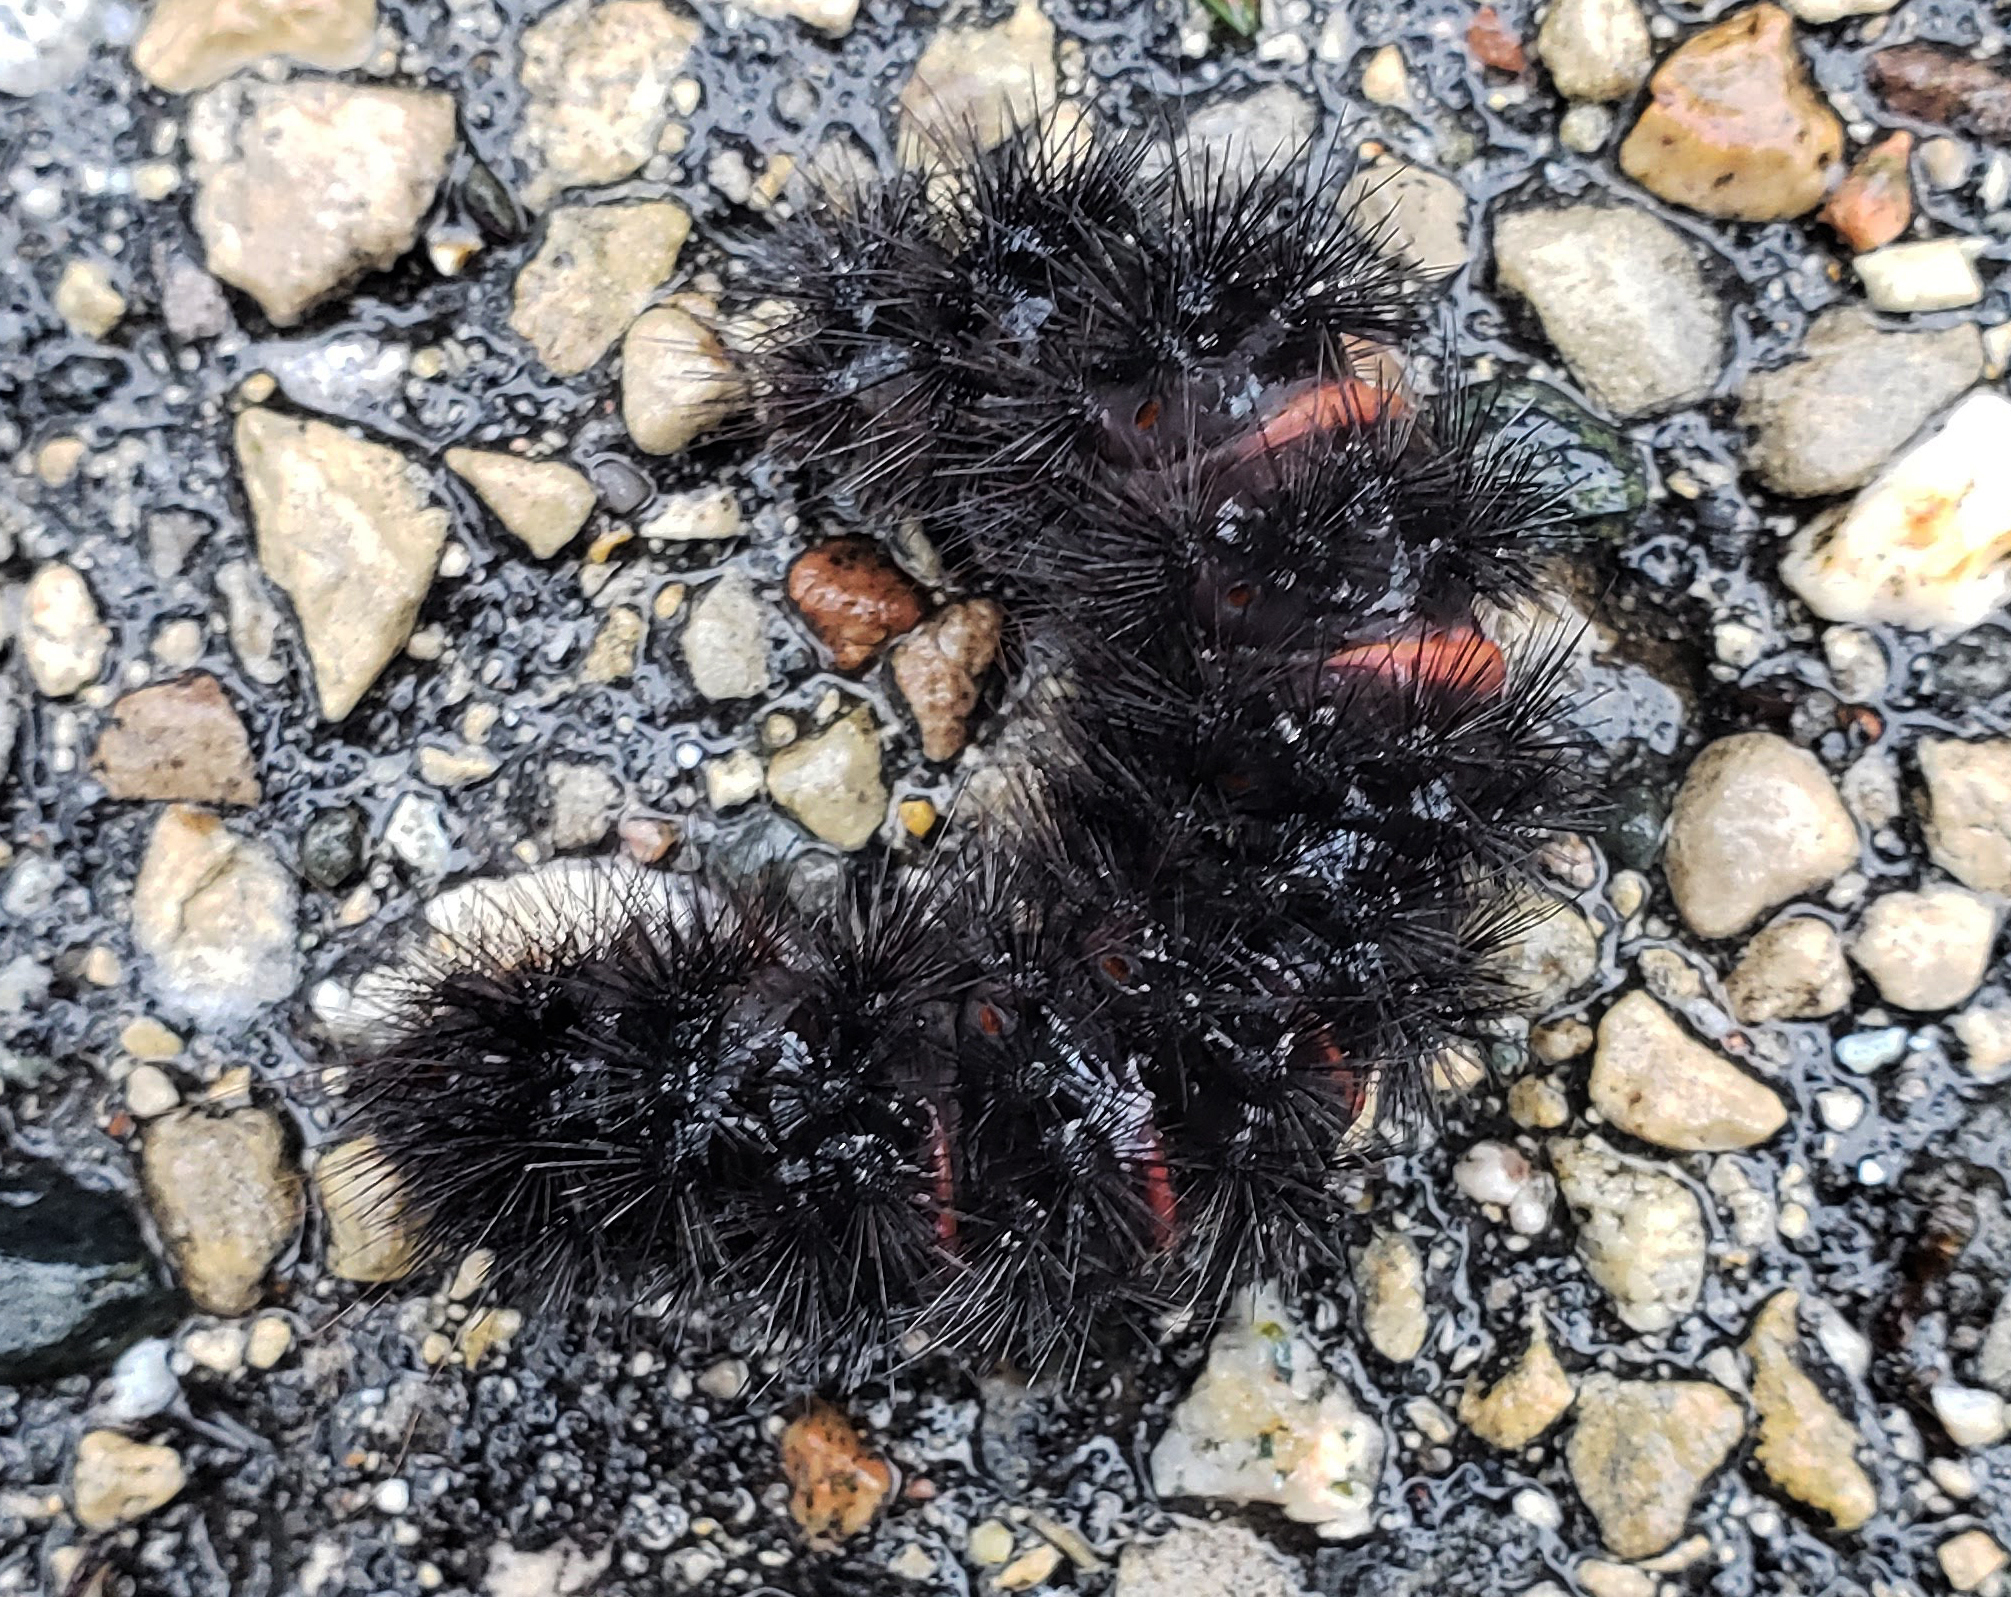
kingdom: Animalia
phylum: Arthropoda
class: Insecta
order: Lepidoptera
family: Erebidae
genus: Hypercompe
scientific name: Hypercompe scribonia
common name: Giant leopard moth
